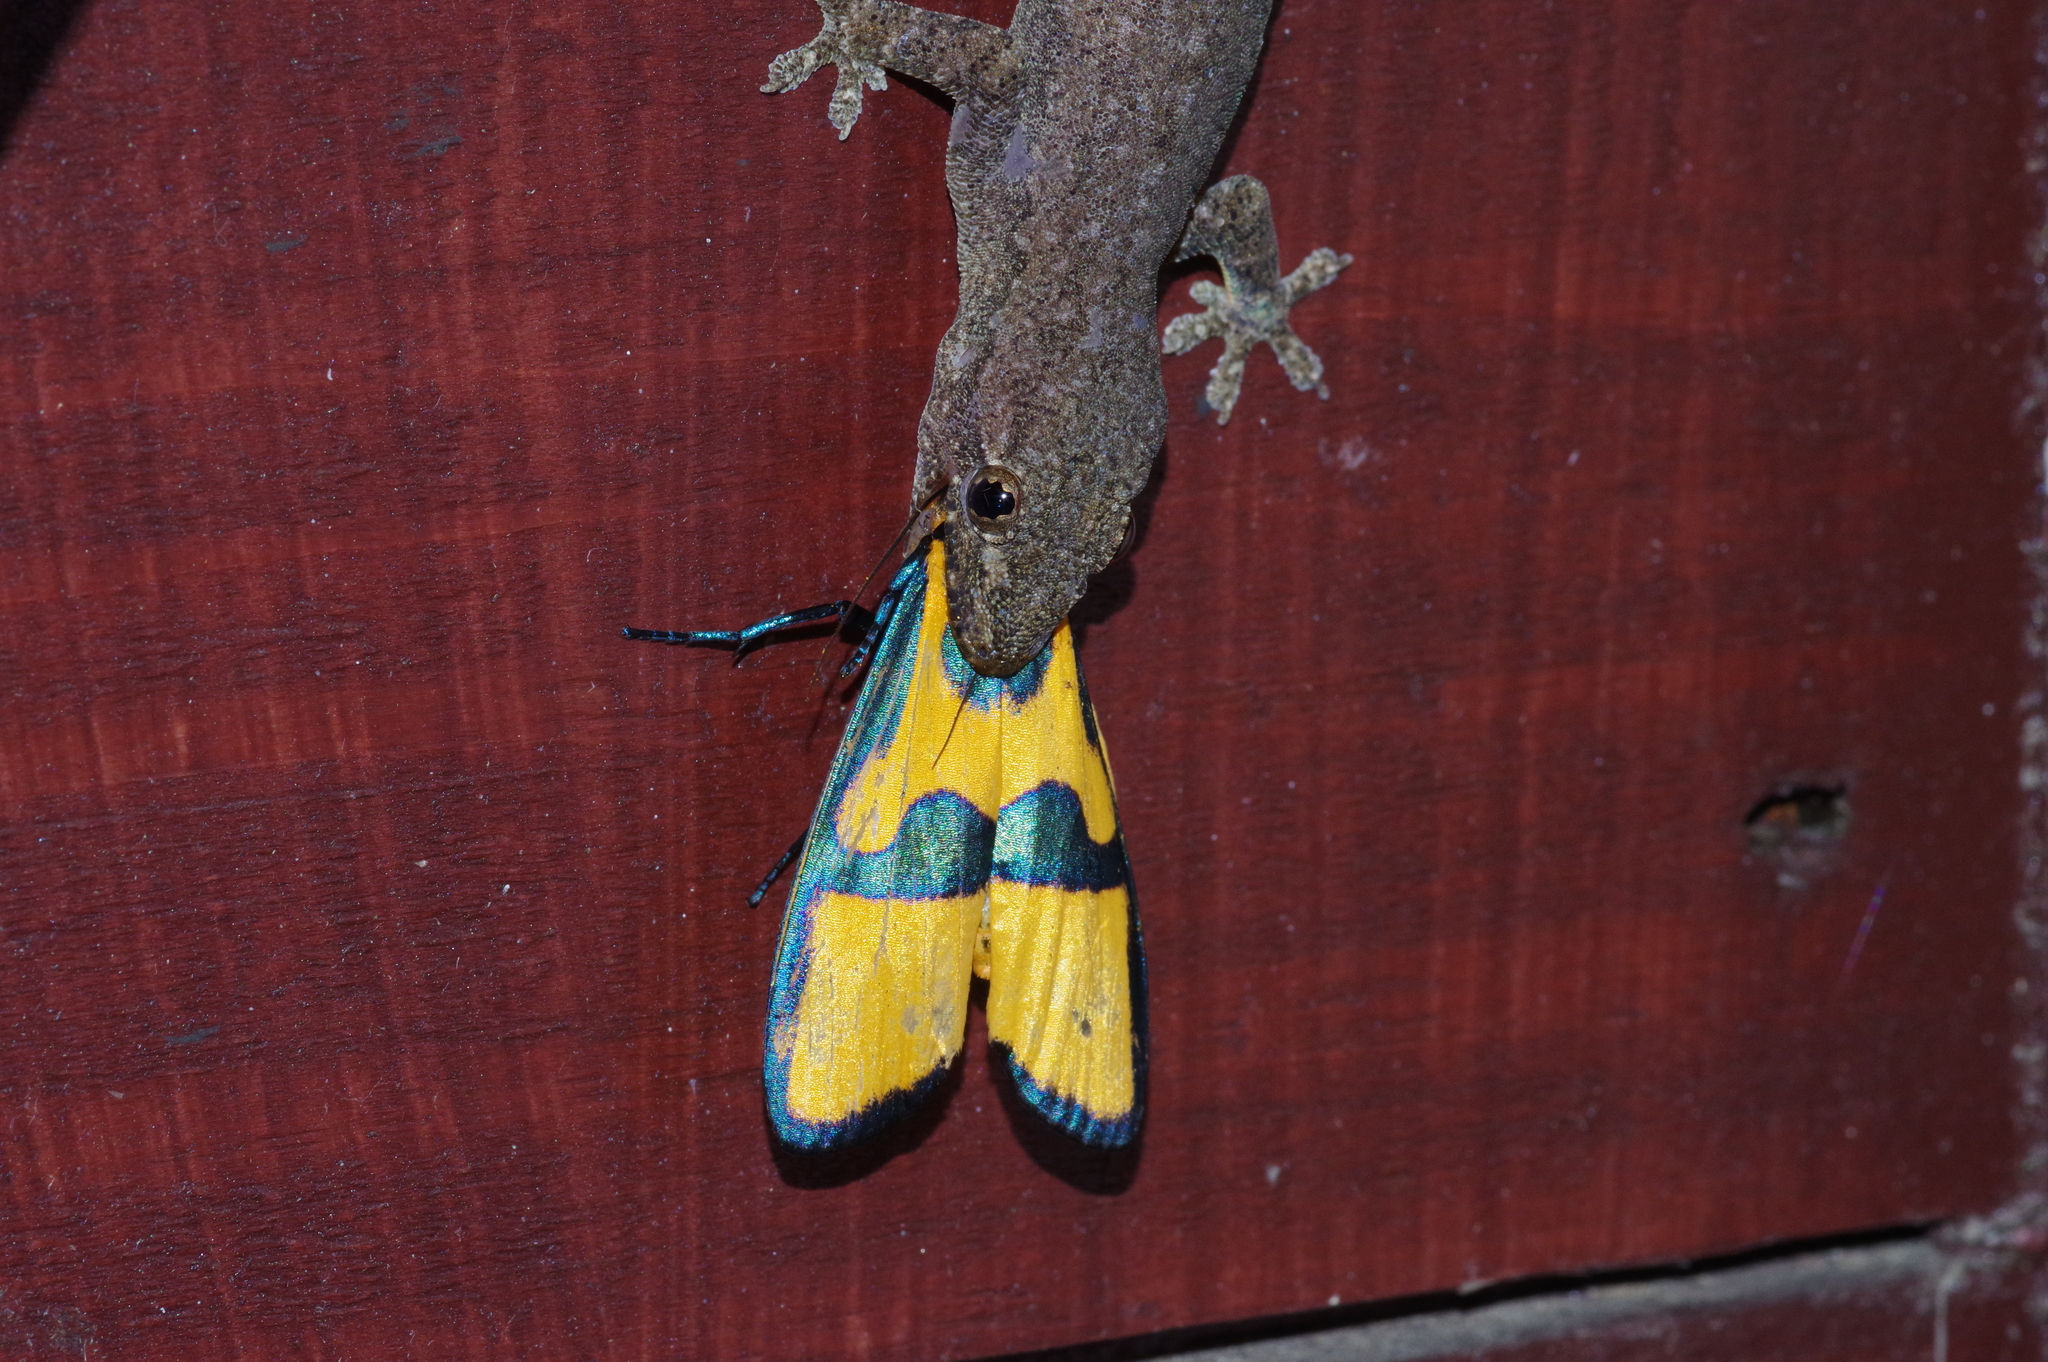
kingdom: Animalia
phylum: Arthropoda
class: Insecta
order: Lepidoptera
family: Erebidae
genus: Chrysaeglia
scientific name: Chrysaeglia magnifica
